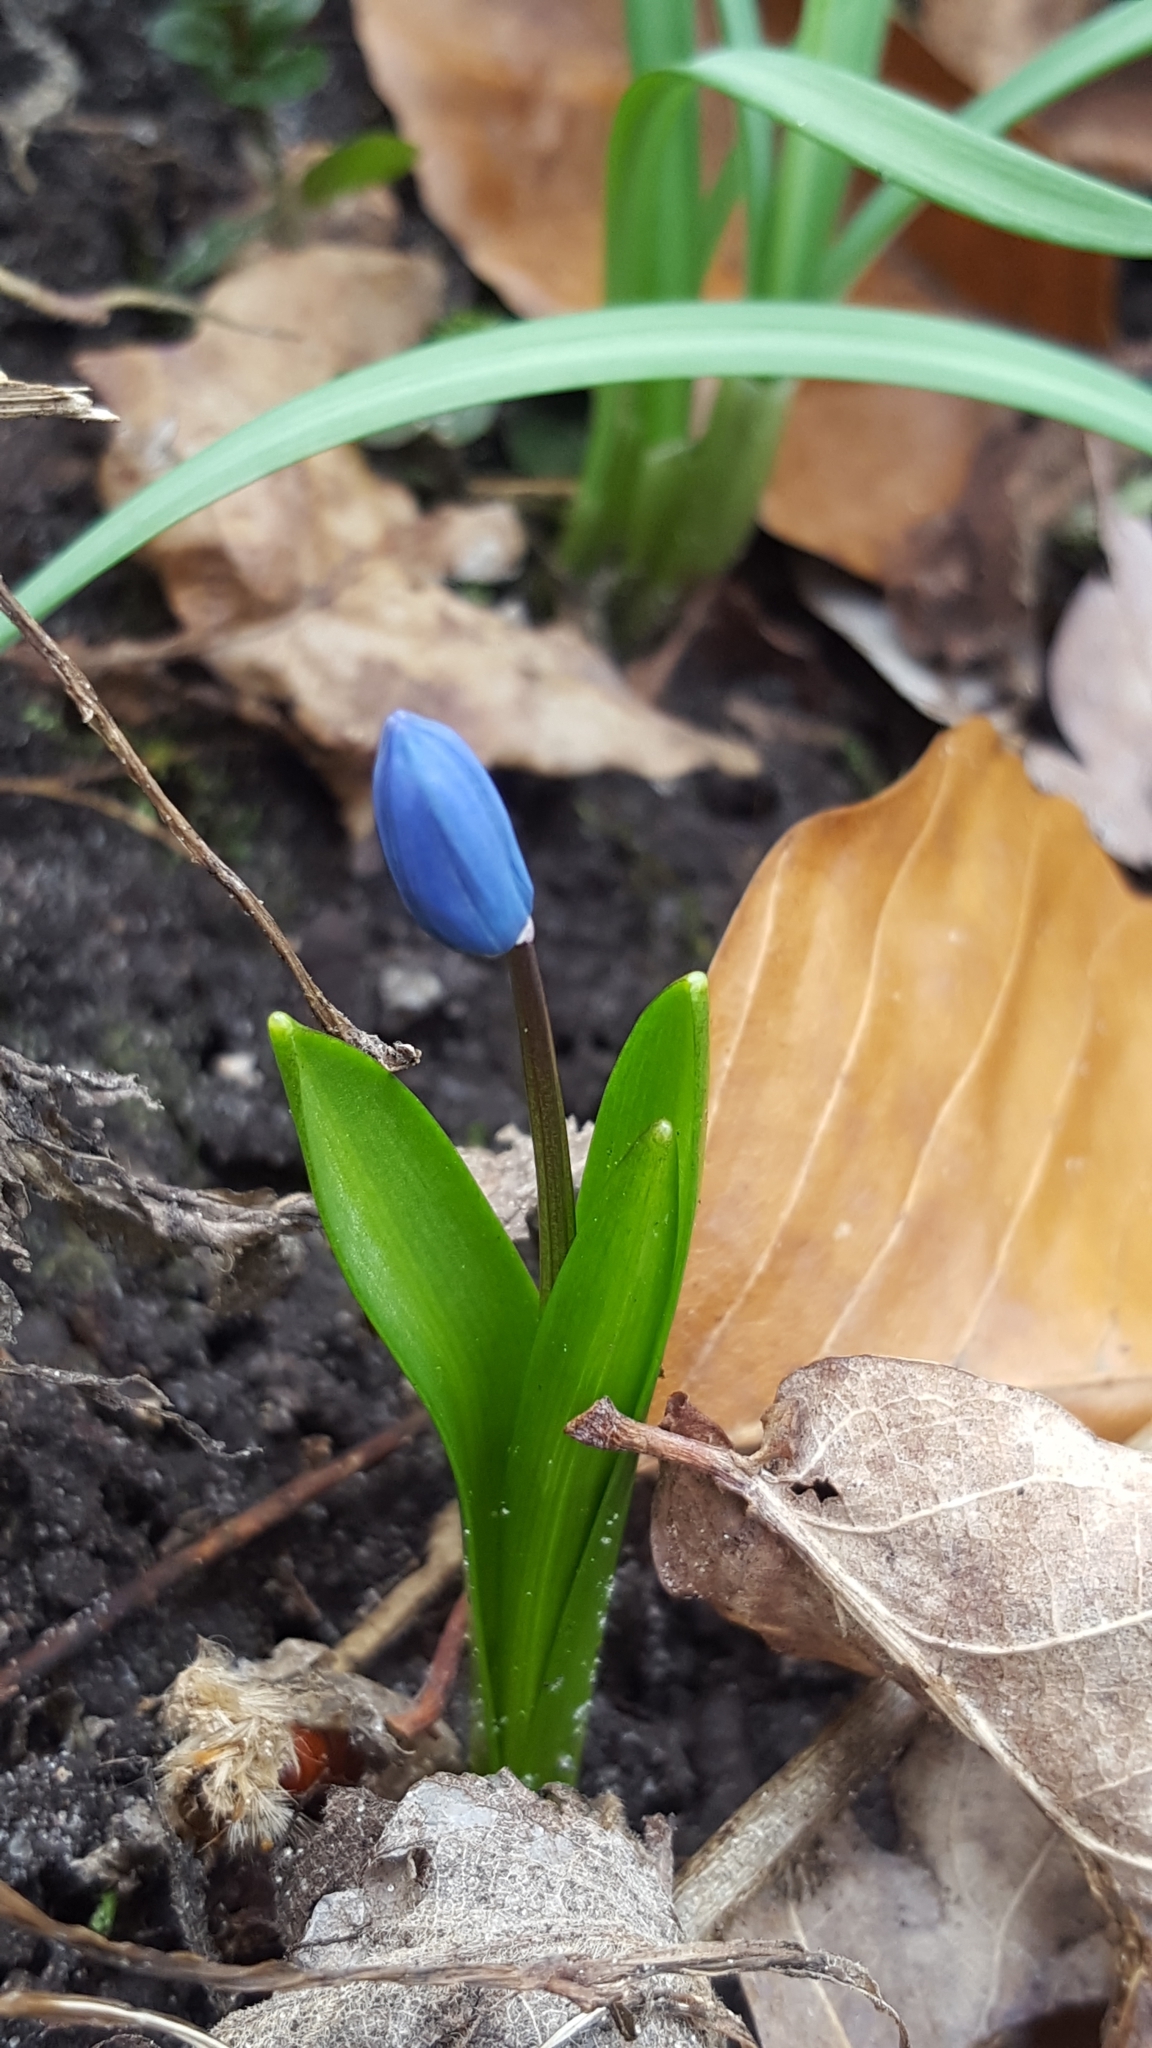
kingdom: Plantae
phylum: Tracheophyta
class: Liliopsida
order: Asparagales
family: Asparagaceae
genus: Scilla
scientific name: Scilla siberica
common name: Siberian squill
